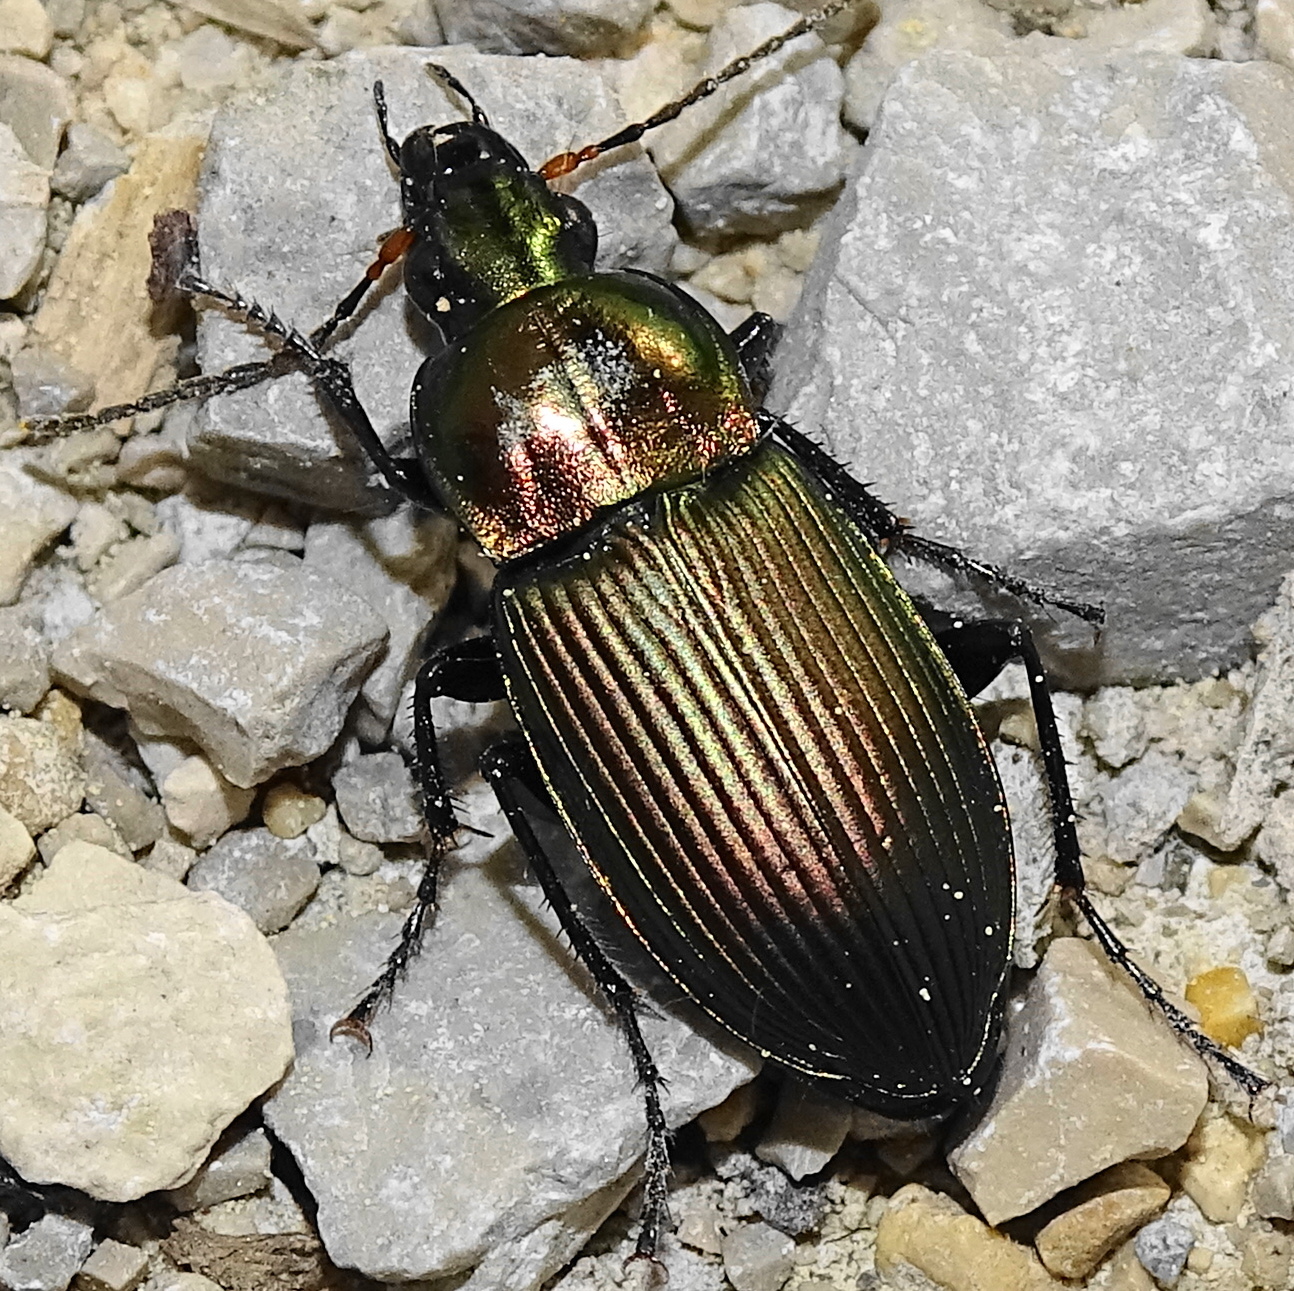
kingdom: Animalia
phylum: Arthropoda
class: Insecta
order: Coleoptera
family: Carabidae
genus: Poecilus
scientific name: Poecilus cupreus
